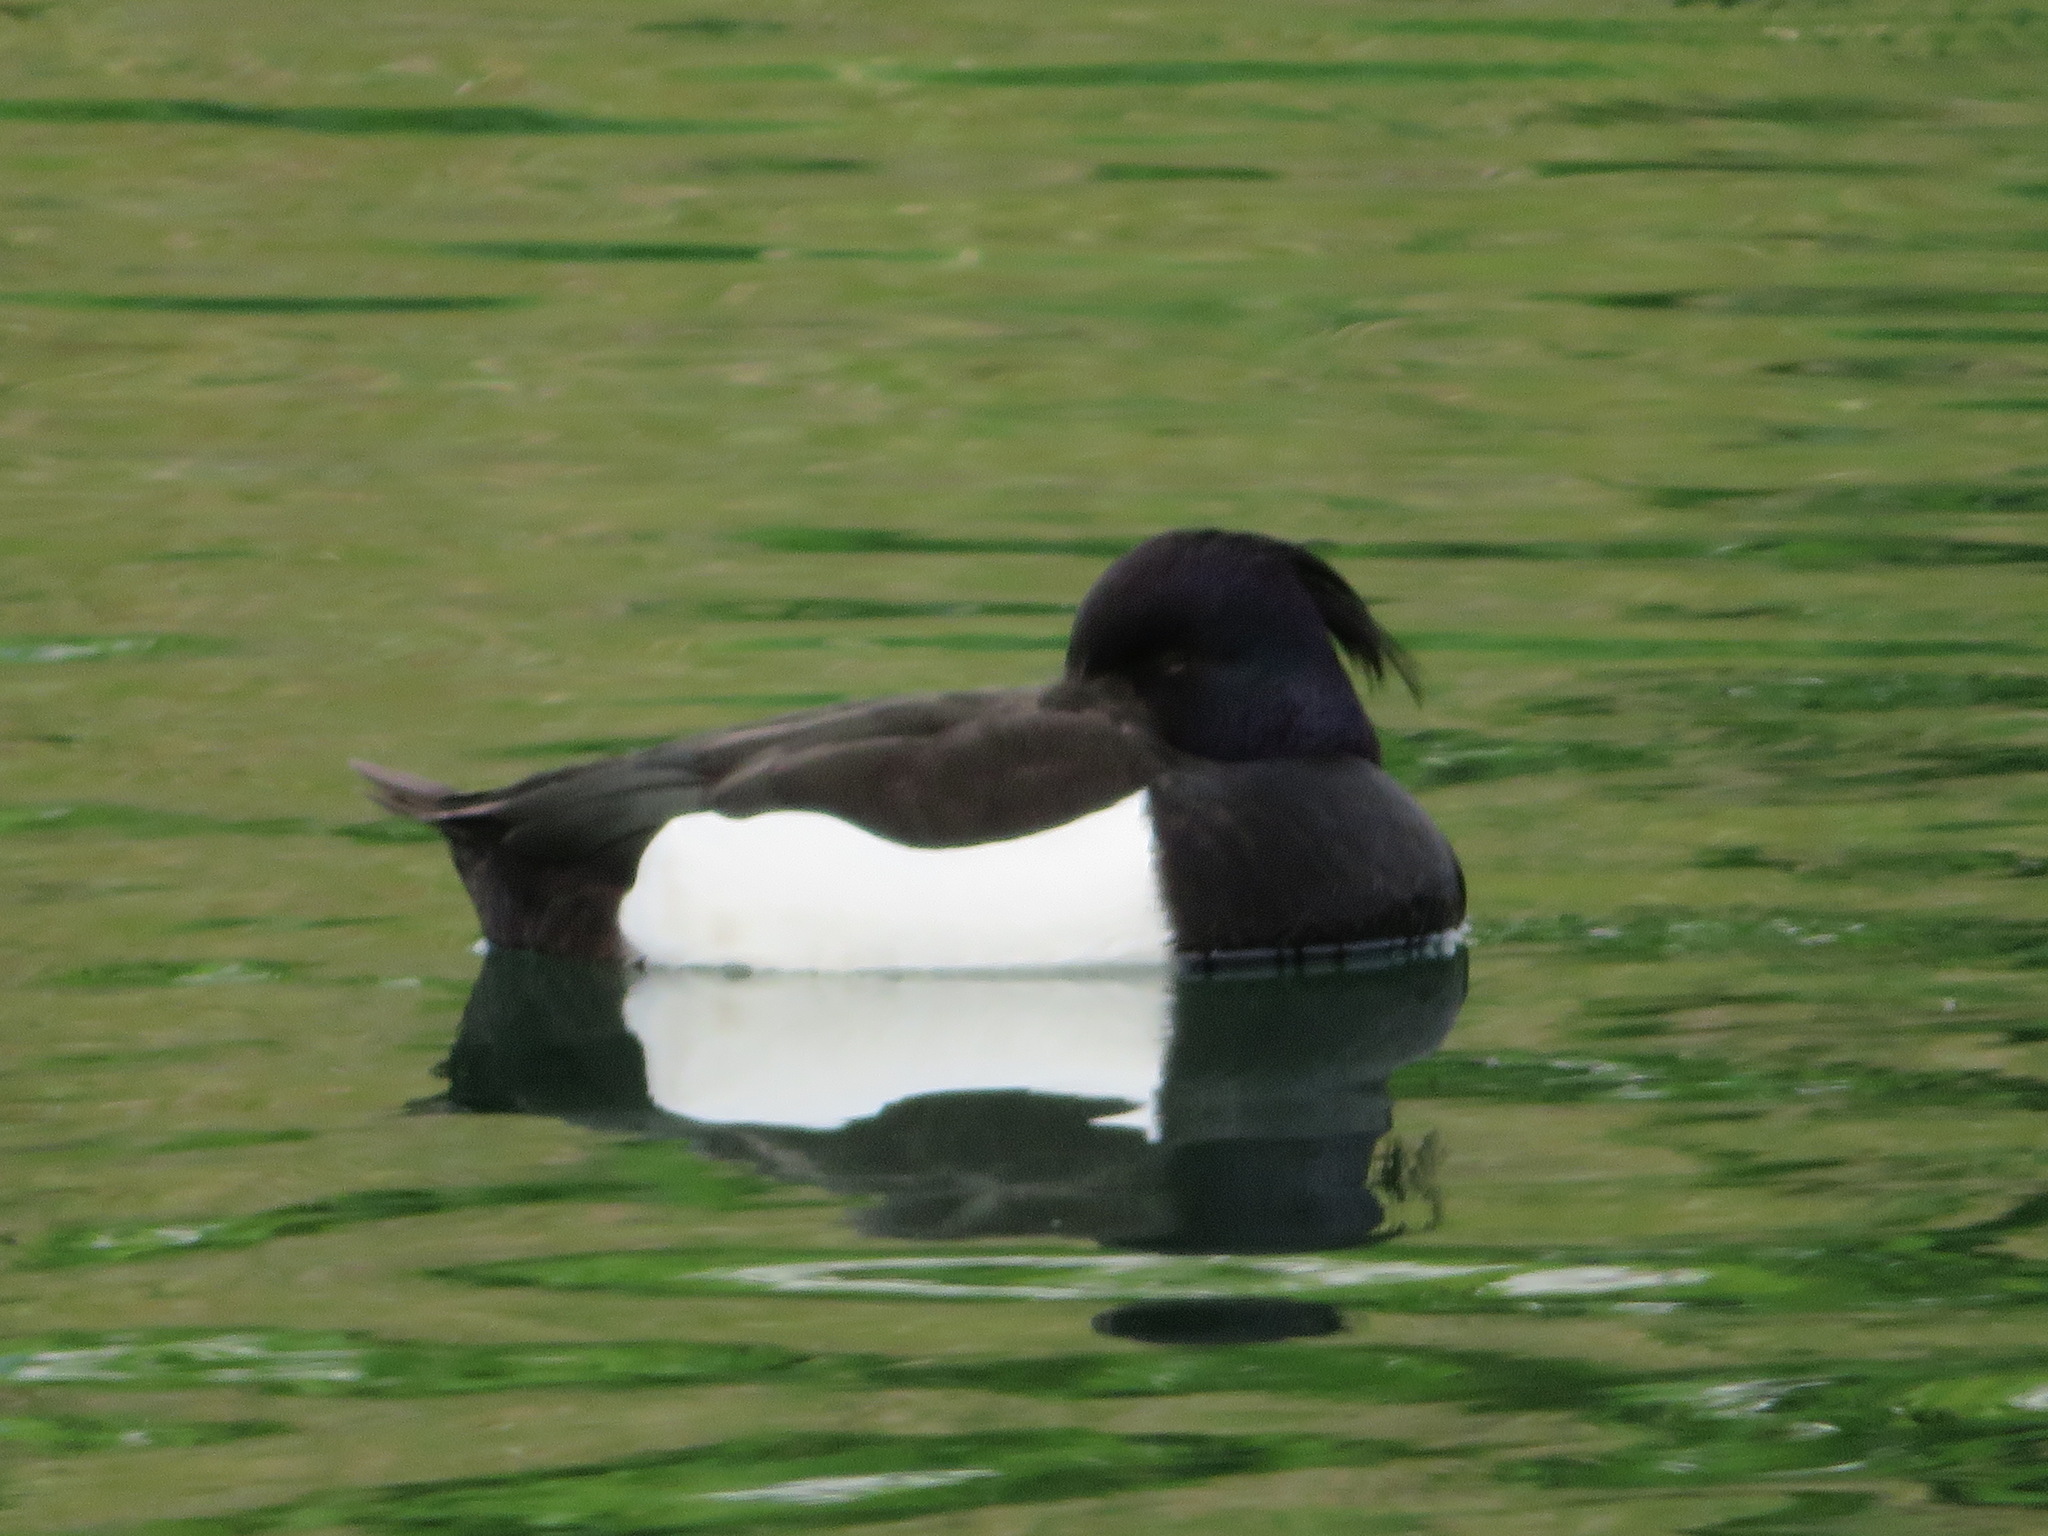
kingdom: Animalia
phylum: Chordata
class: Aves
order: Anseriformes
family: Anatidae
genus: Aythya
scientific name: Aythya fuligula
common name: Tufted duck
